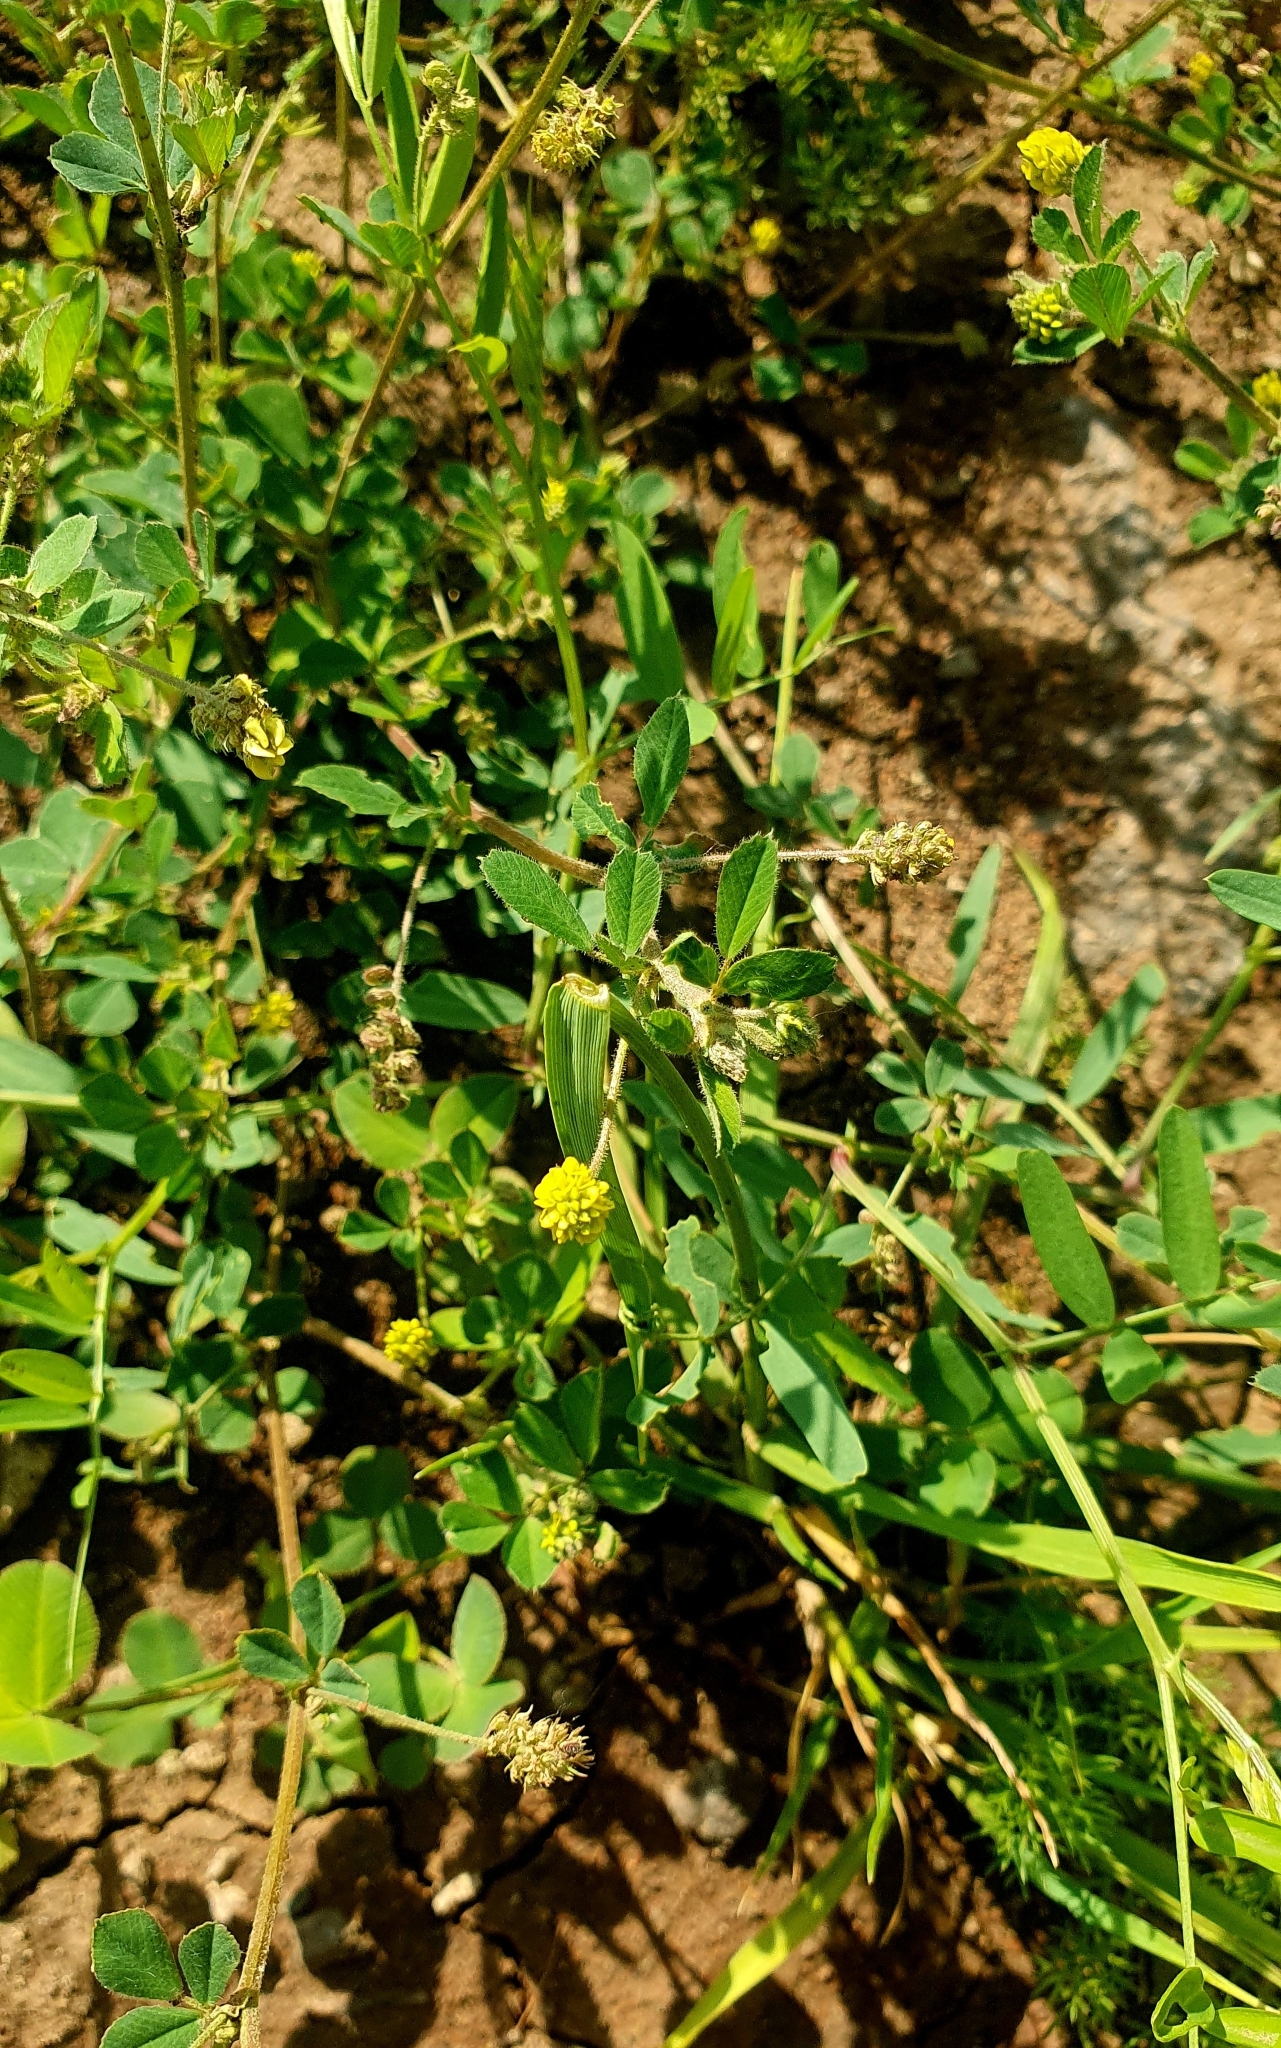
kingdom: Plantae
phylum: Tracheophyta
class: Magnoliopsida
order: Fabales
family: Fabaceae
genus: Medicago
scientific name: Medicago lupulina
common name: Black medick
